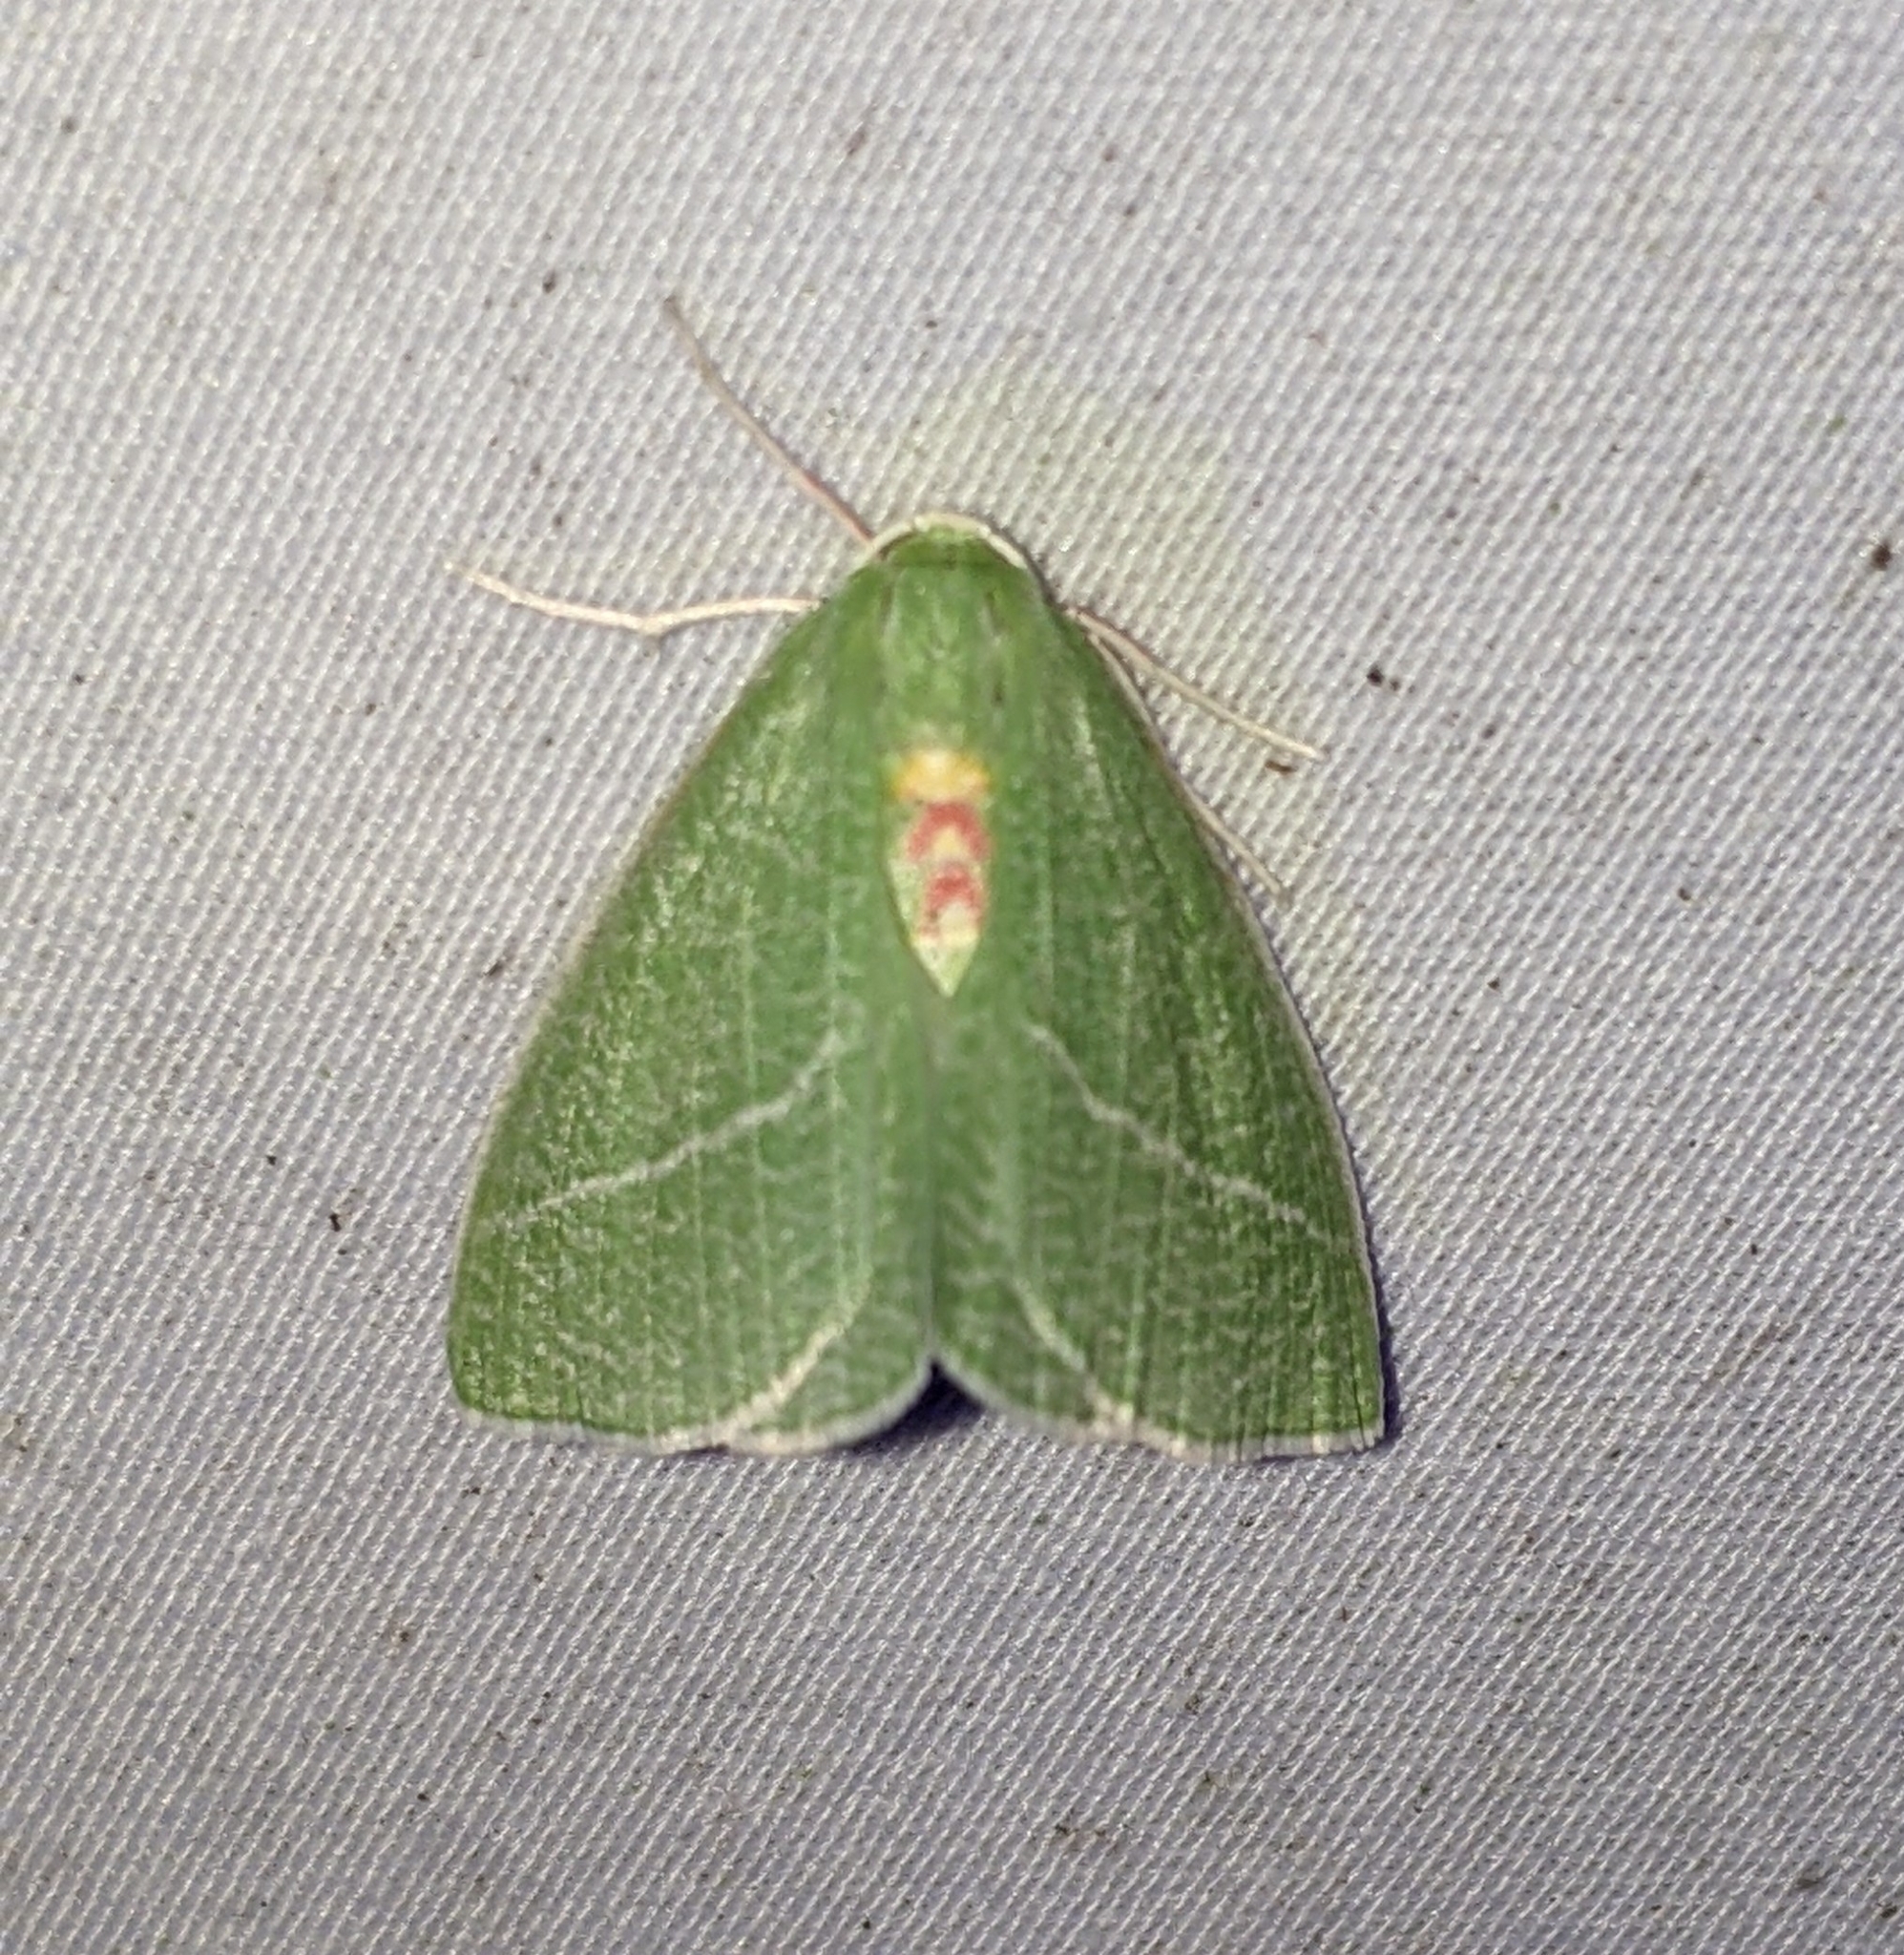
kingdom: Animalia
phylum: Arthropoda
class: Insecta
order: Lepidoptera
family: Geometridae
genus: Chlorosea
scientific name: Chlorosea banksaria
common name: Bank's emerald moth
